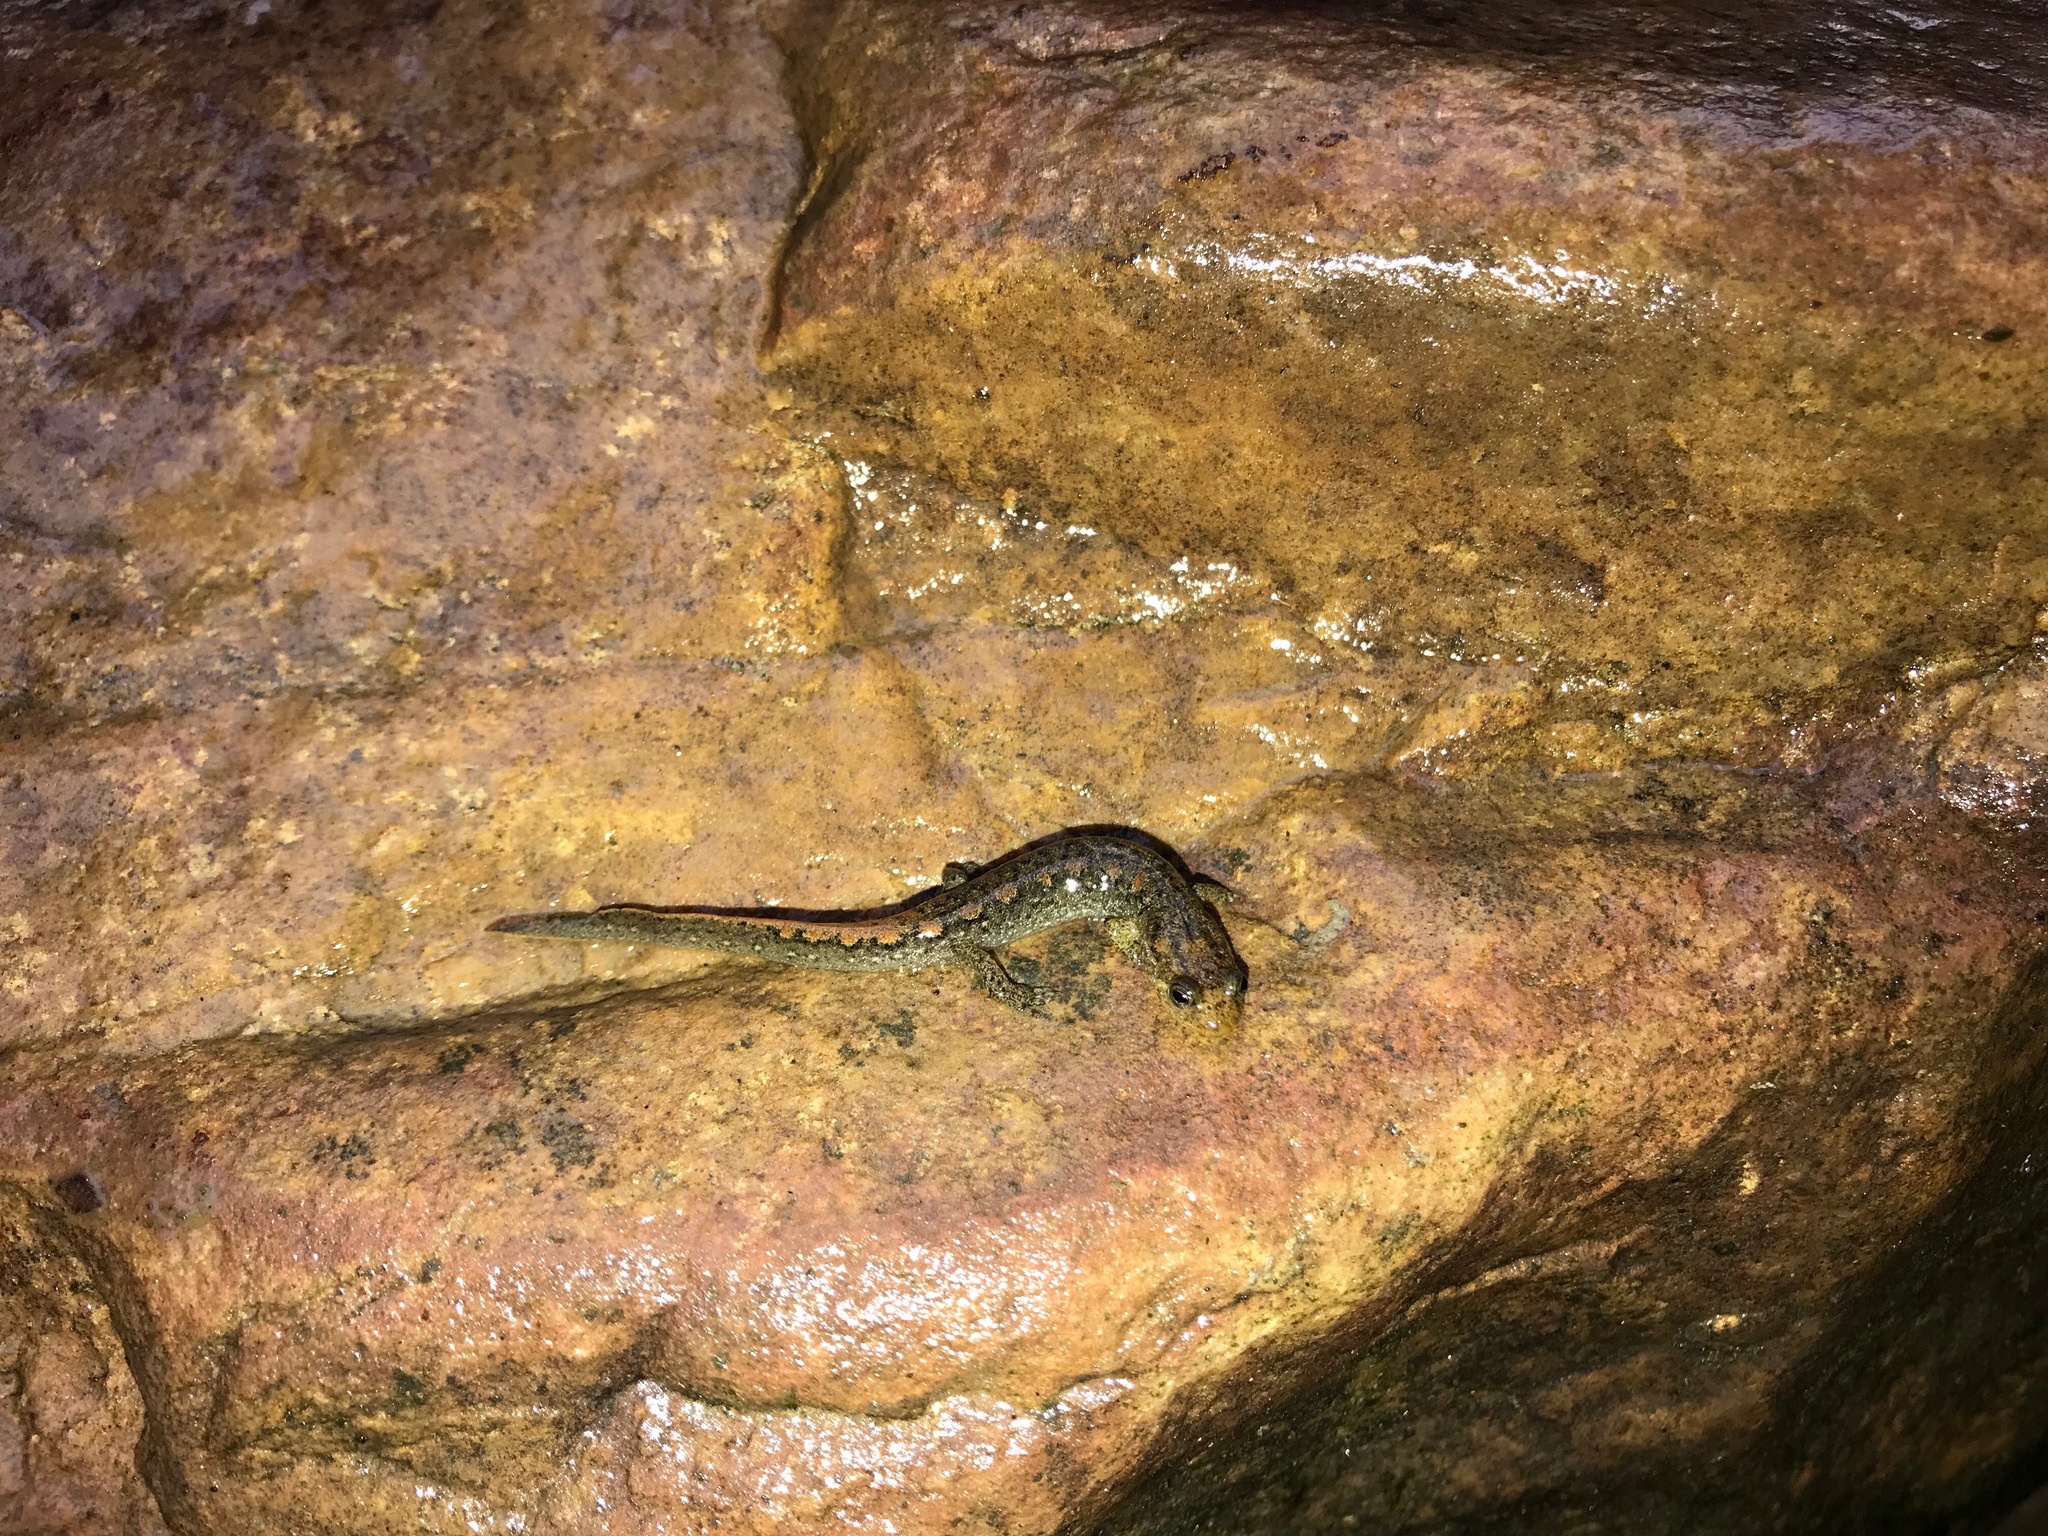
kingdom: Animalia
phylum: Chordata
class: Amphibia
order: Caudata
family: Plethodontidae
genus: Desmognathus
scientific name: Desmognathus brimleyorum
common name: Ouachita dusky salamander
